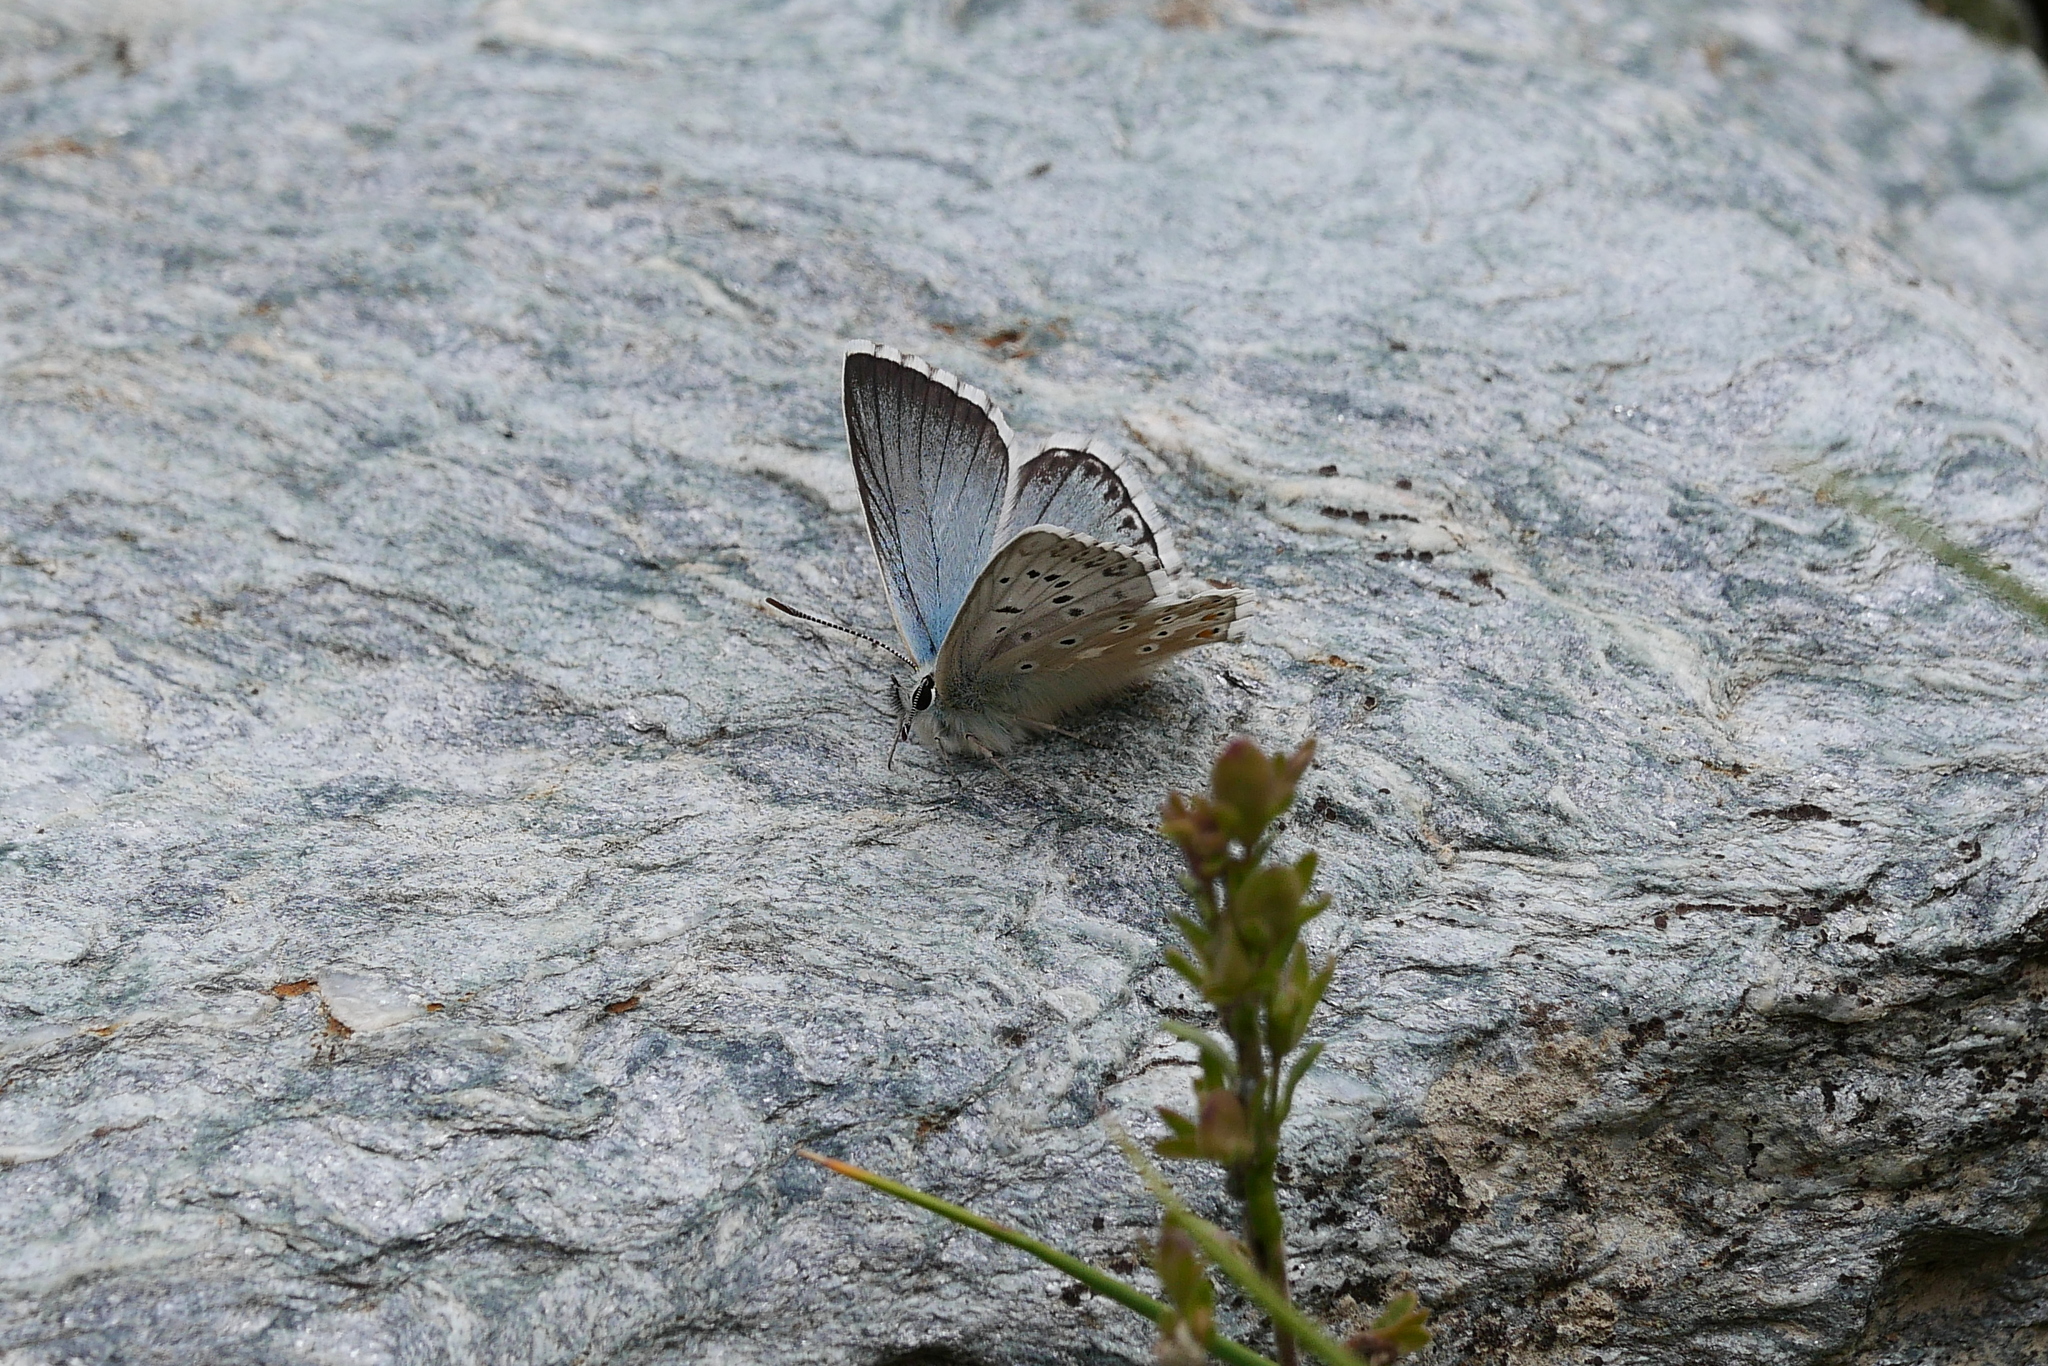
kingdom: Animalia
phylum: Arthropoda
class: Insecta
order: Lepidoptera
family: Lycaenidae
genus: Lysandra
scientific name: Lysandra coridon
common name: Chalkhill blue
